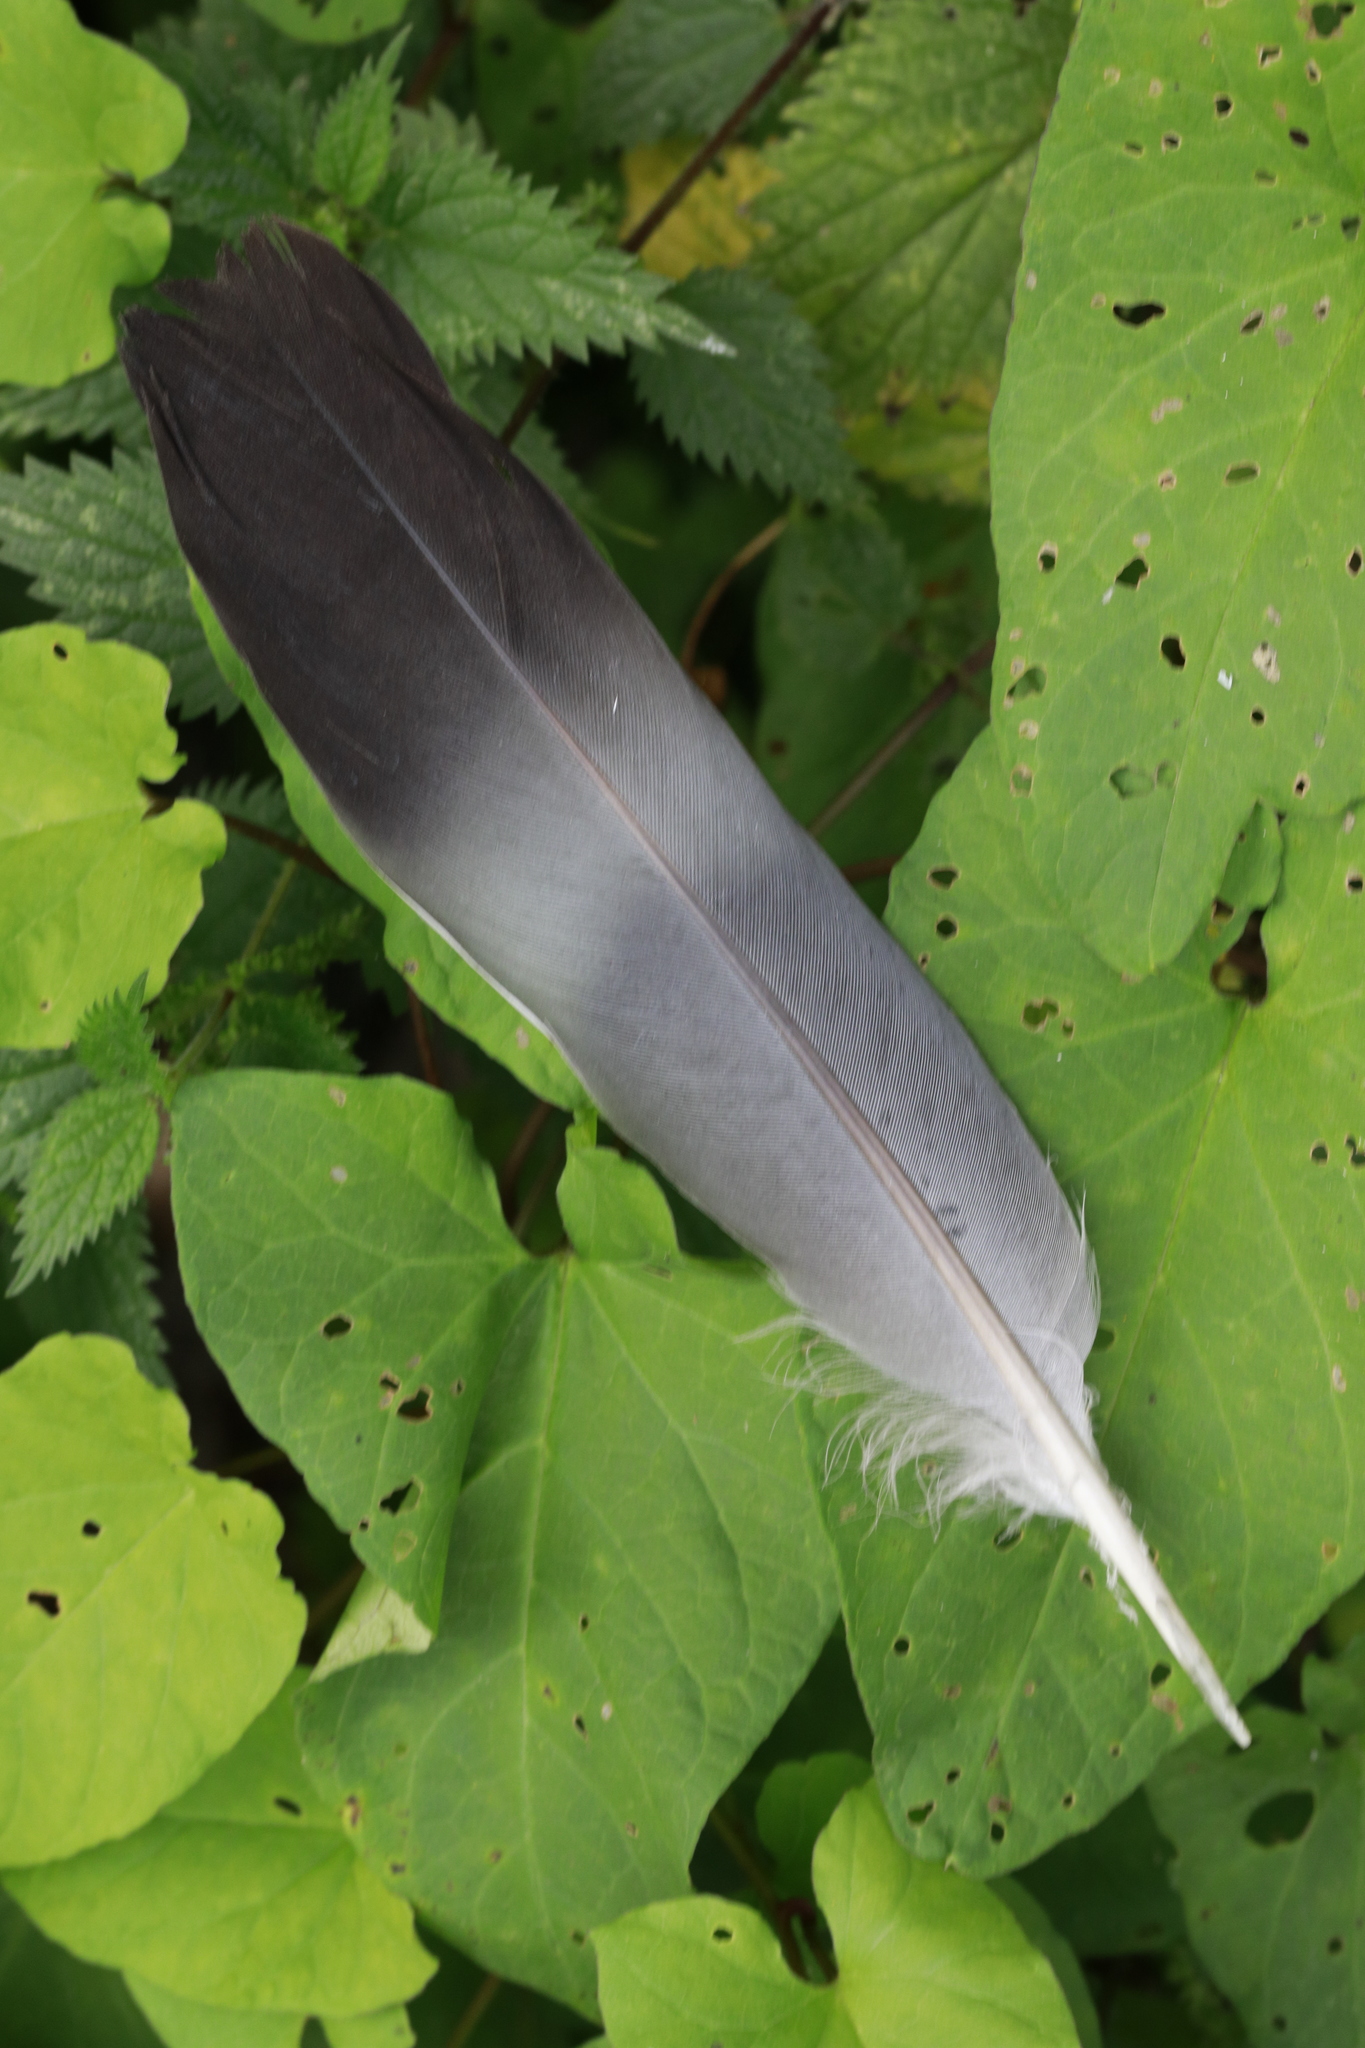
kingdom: Animalia
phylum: Chordata
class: Aves
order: Columbiformes
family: Columbidae
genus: Columba
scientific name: Columba palumbus
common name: Common wood pigeon
